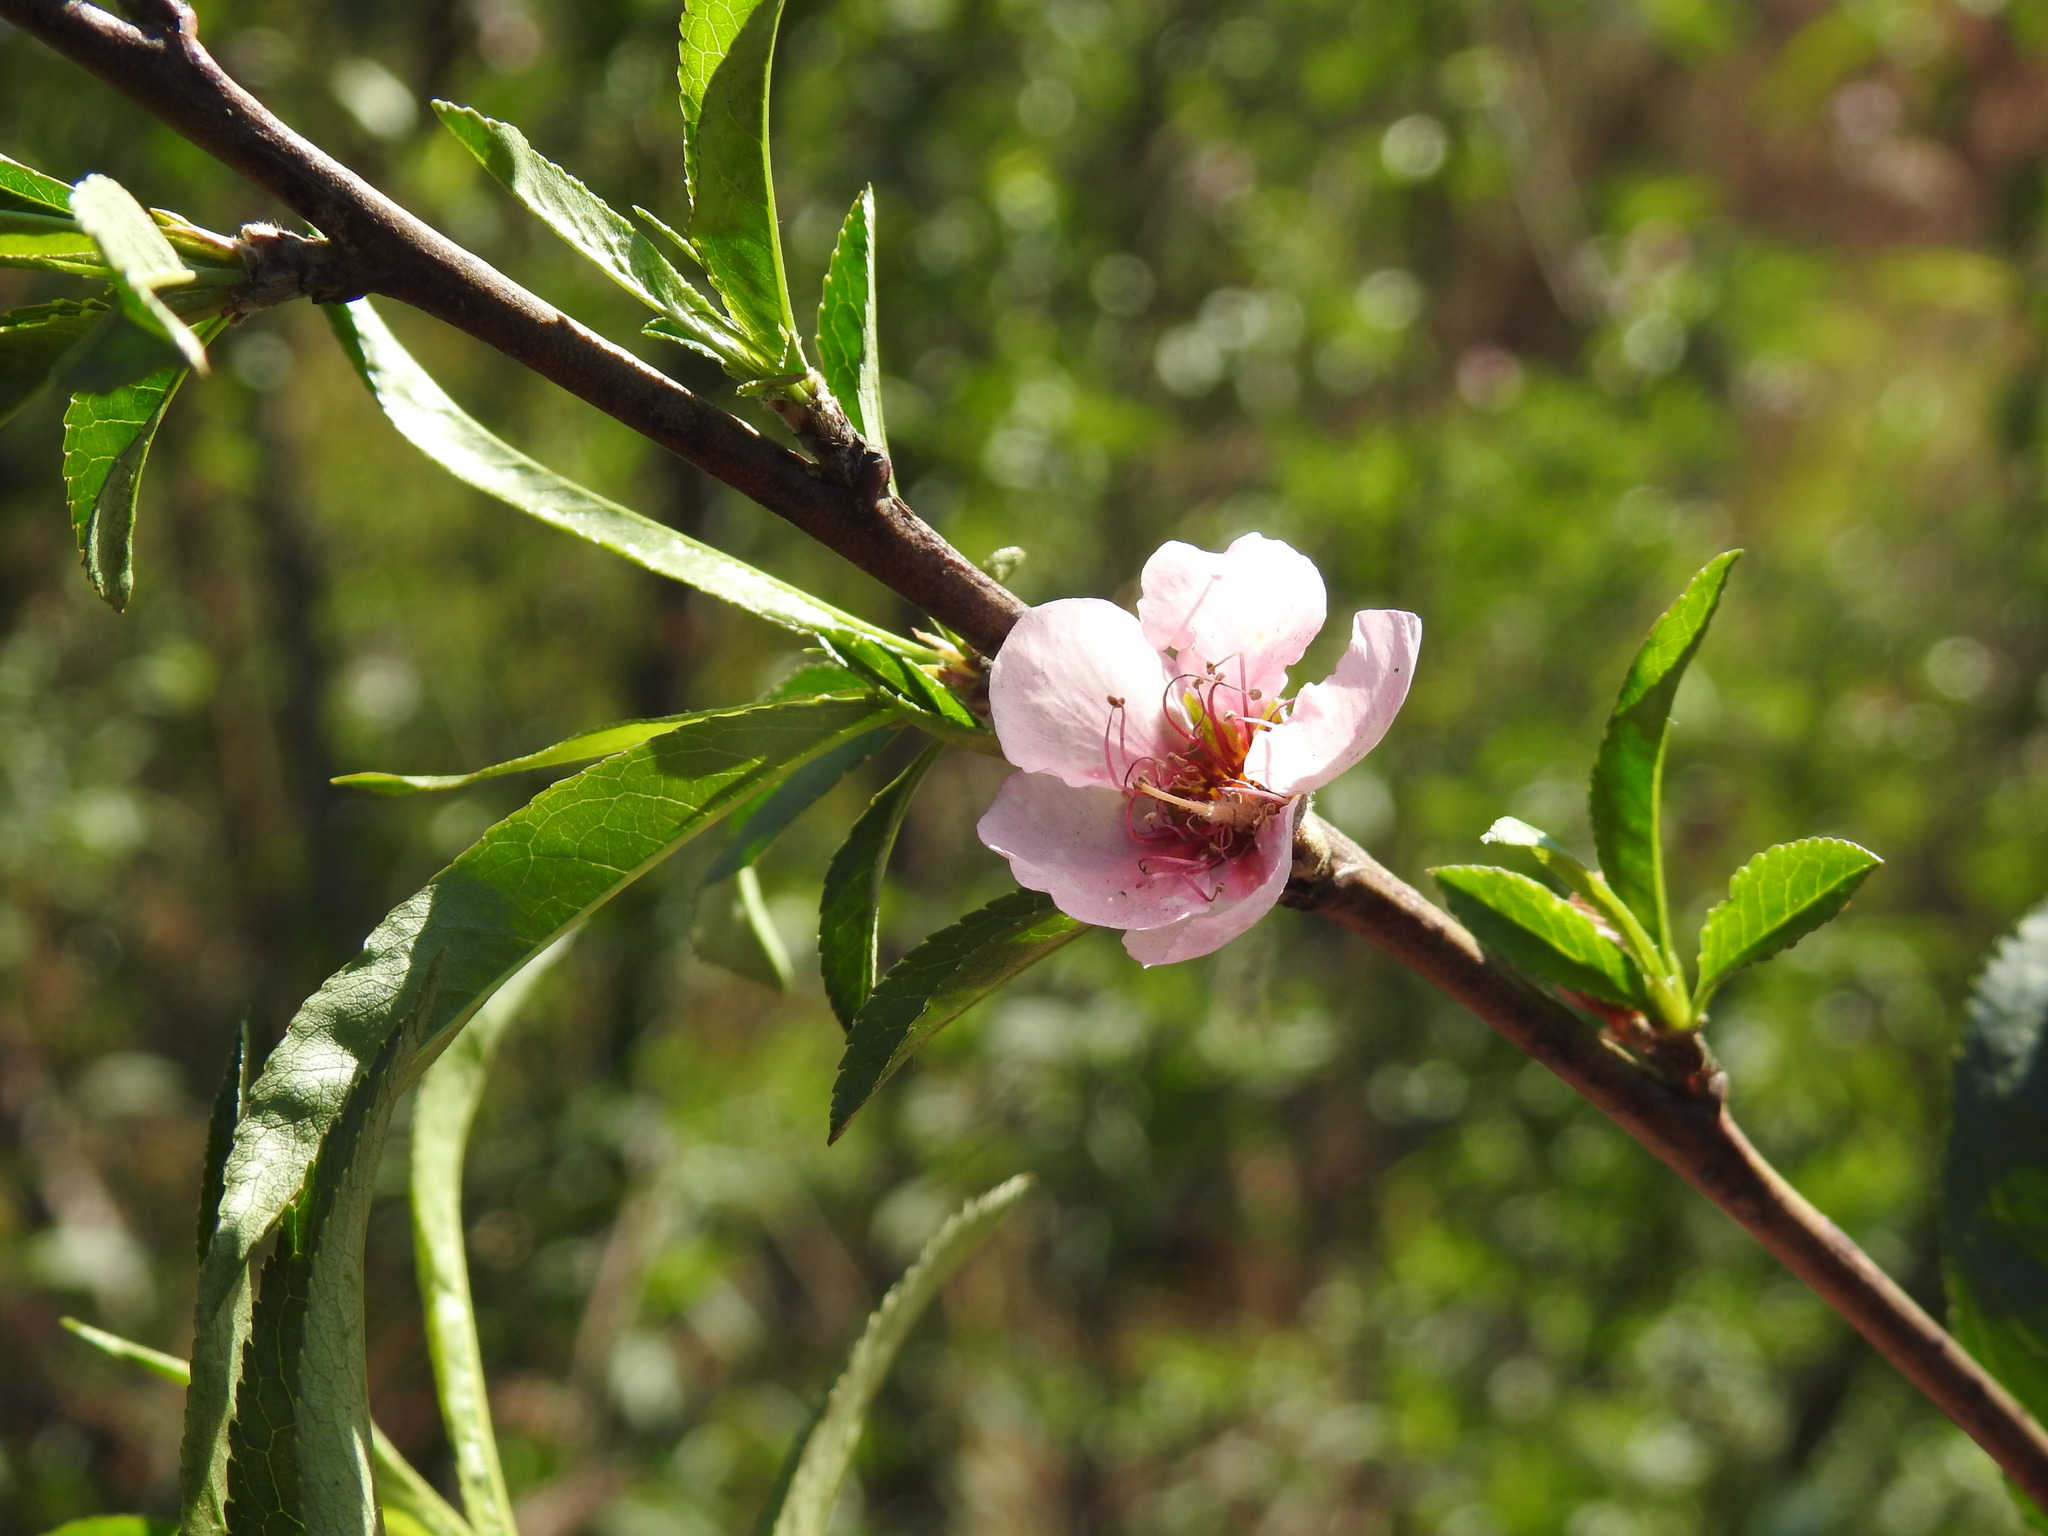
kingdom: Plantae
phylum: Tracheophyta
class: Magnoliopsida
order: Rosales
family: Rosaceae
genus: Prunus
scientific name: Prunus persica
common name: Peach
